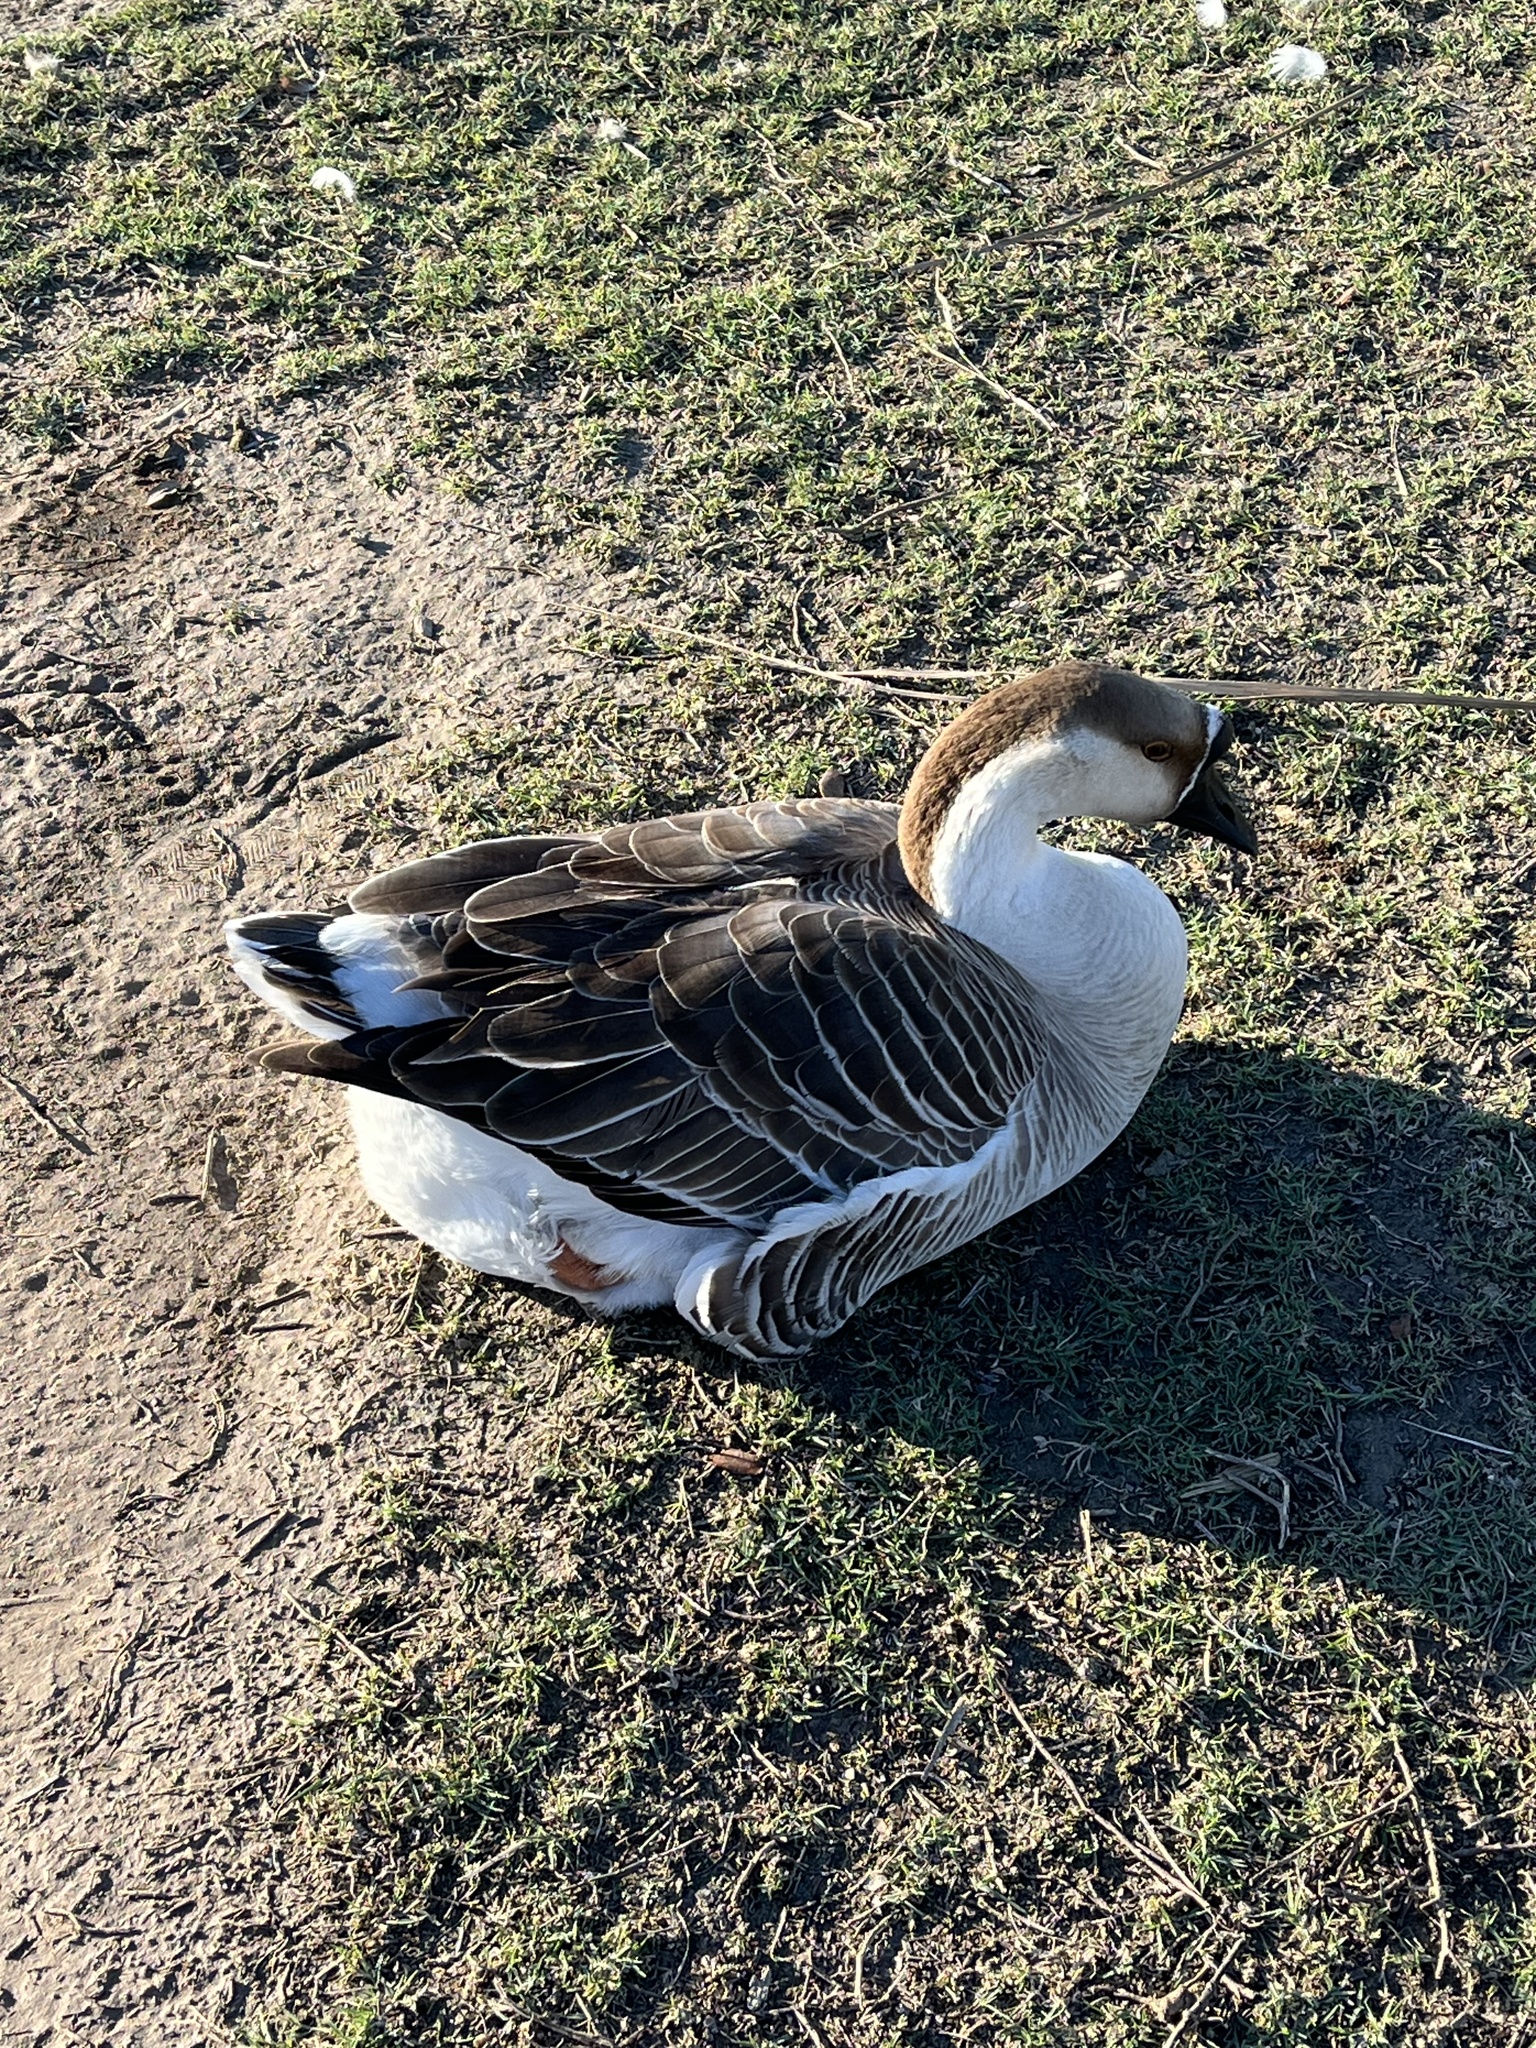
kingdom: Animalia
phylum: Chordata
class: Aves
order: Anseriformes
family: Anatidae
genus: Anser
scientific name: Anser cygnoides
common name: Swan goose
